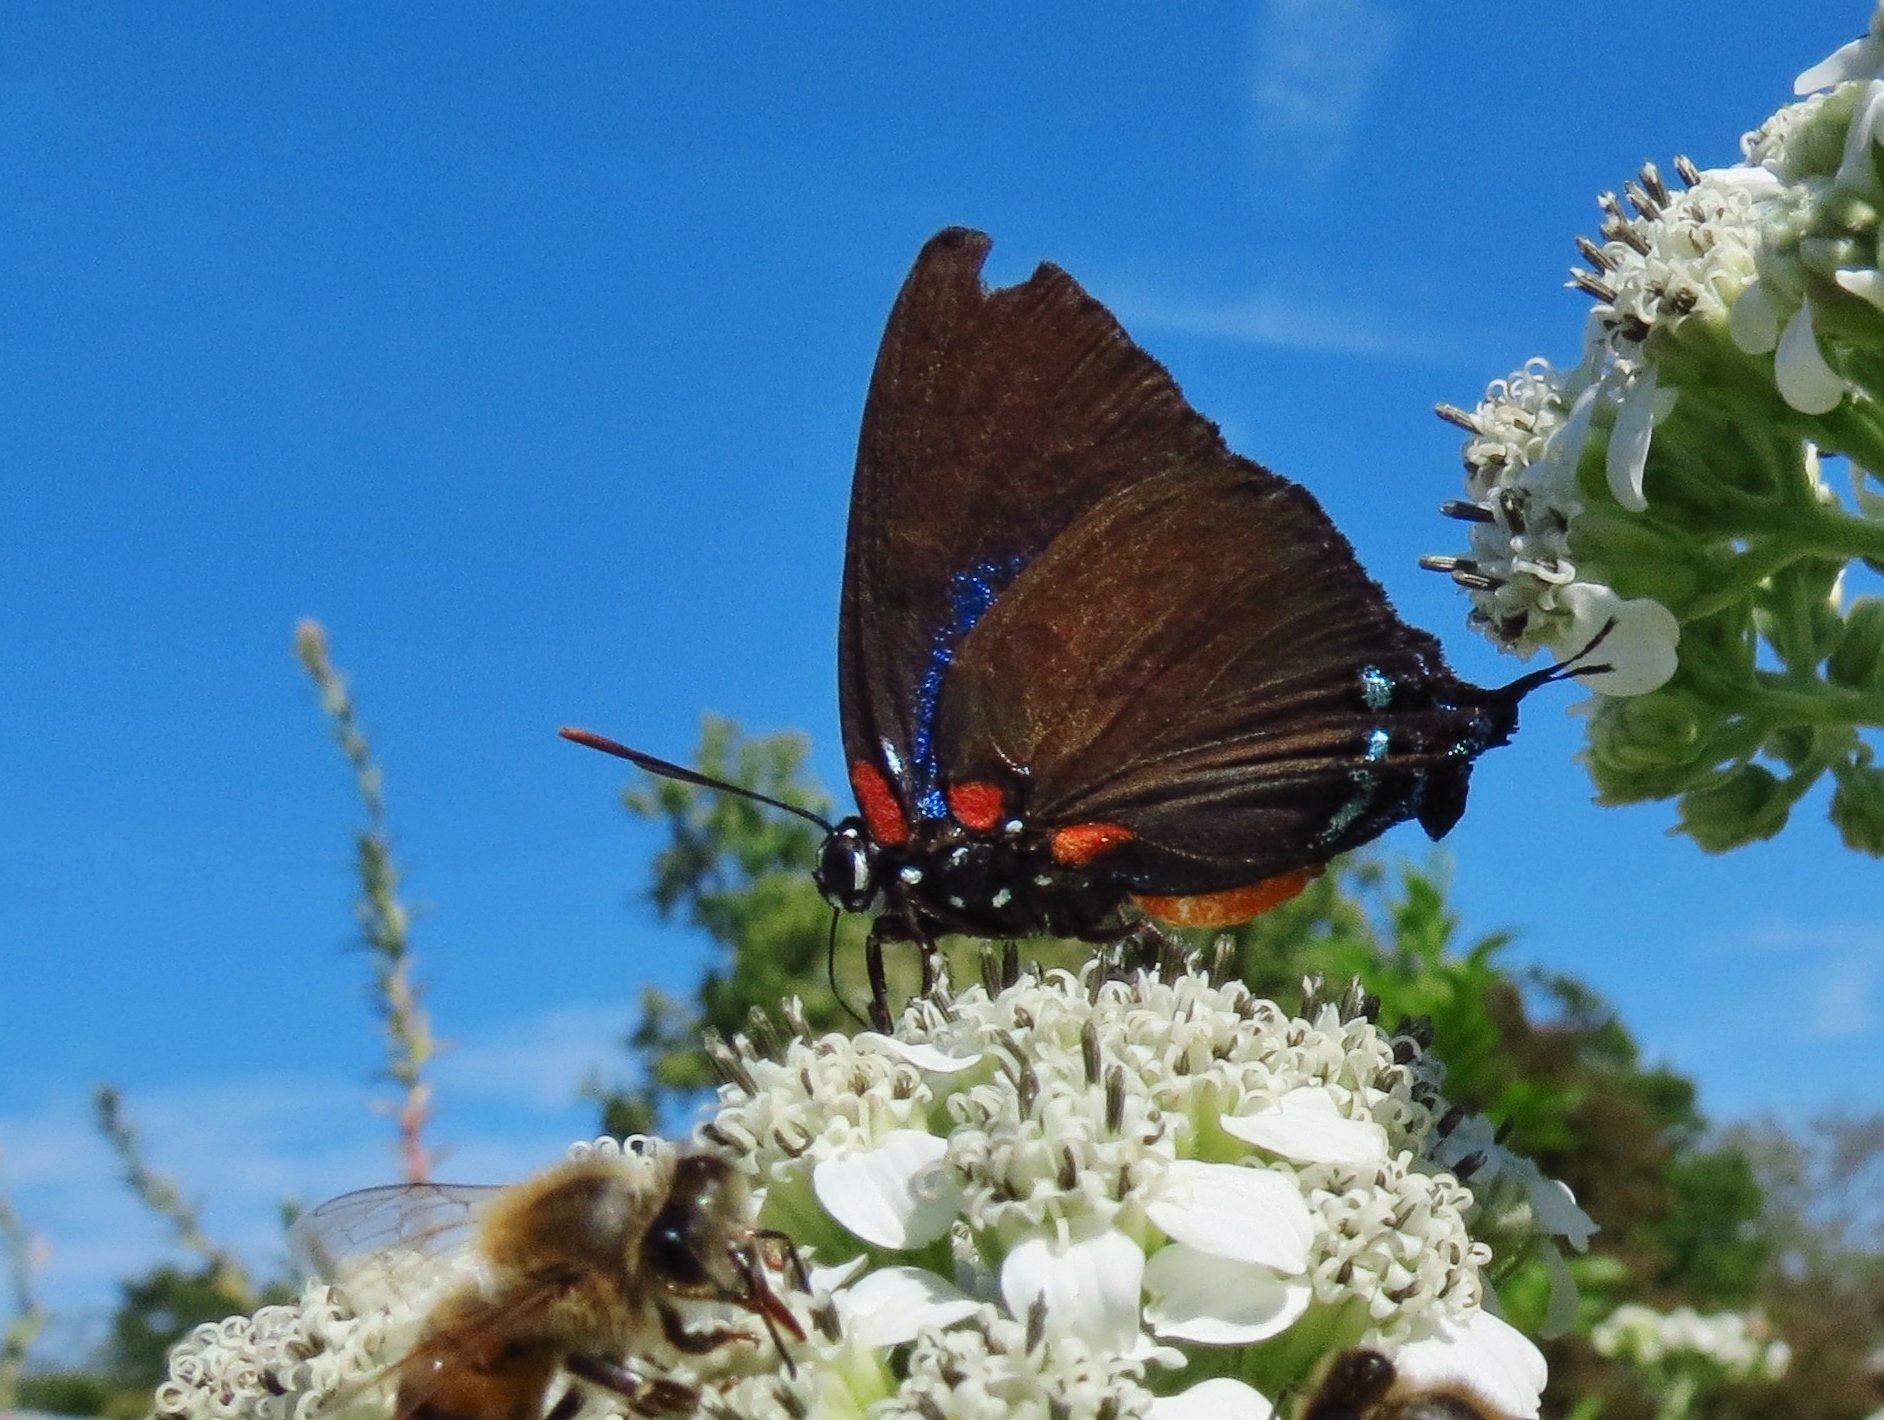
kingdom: Animalia
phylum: Arthropoda
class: Insecta
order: Lepidoptera
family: Lycaenidae
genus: Atlides
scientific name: Atlides halesus
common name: Great purple hairstreak
